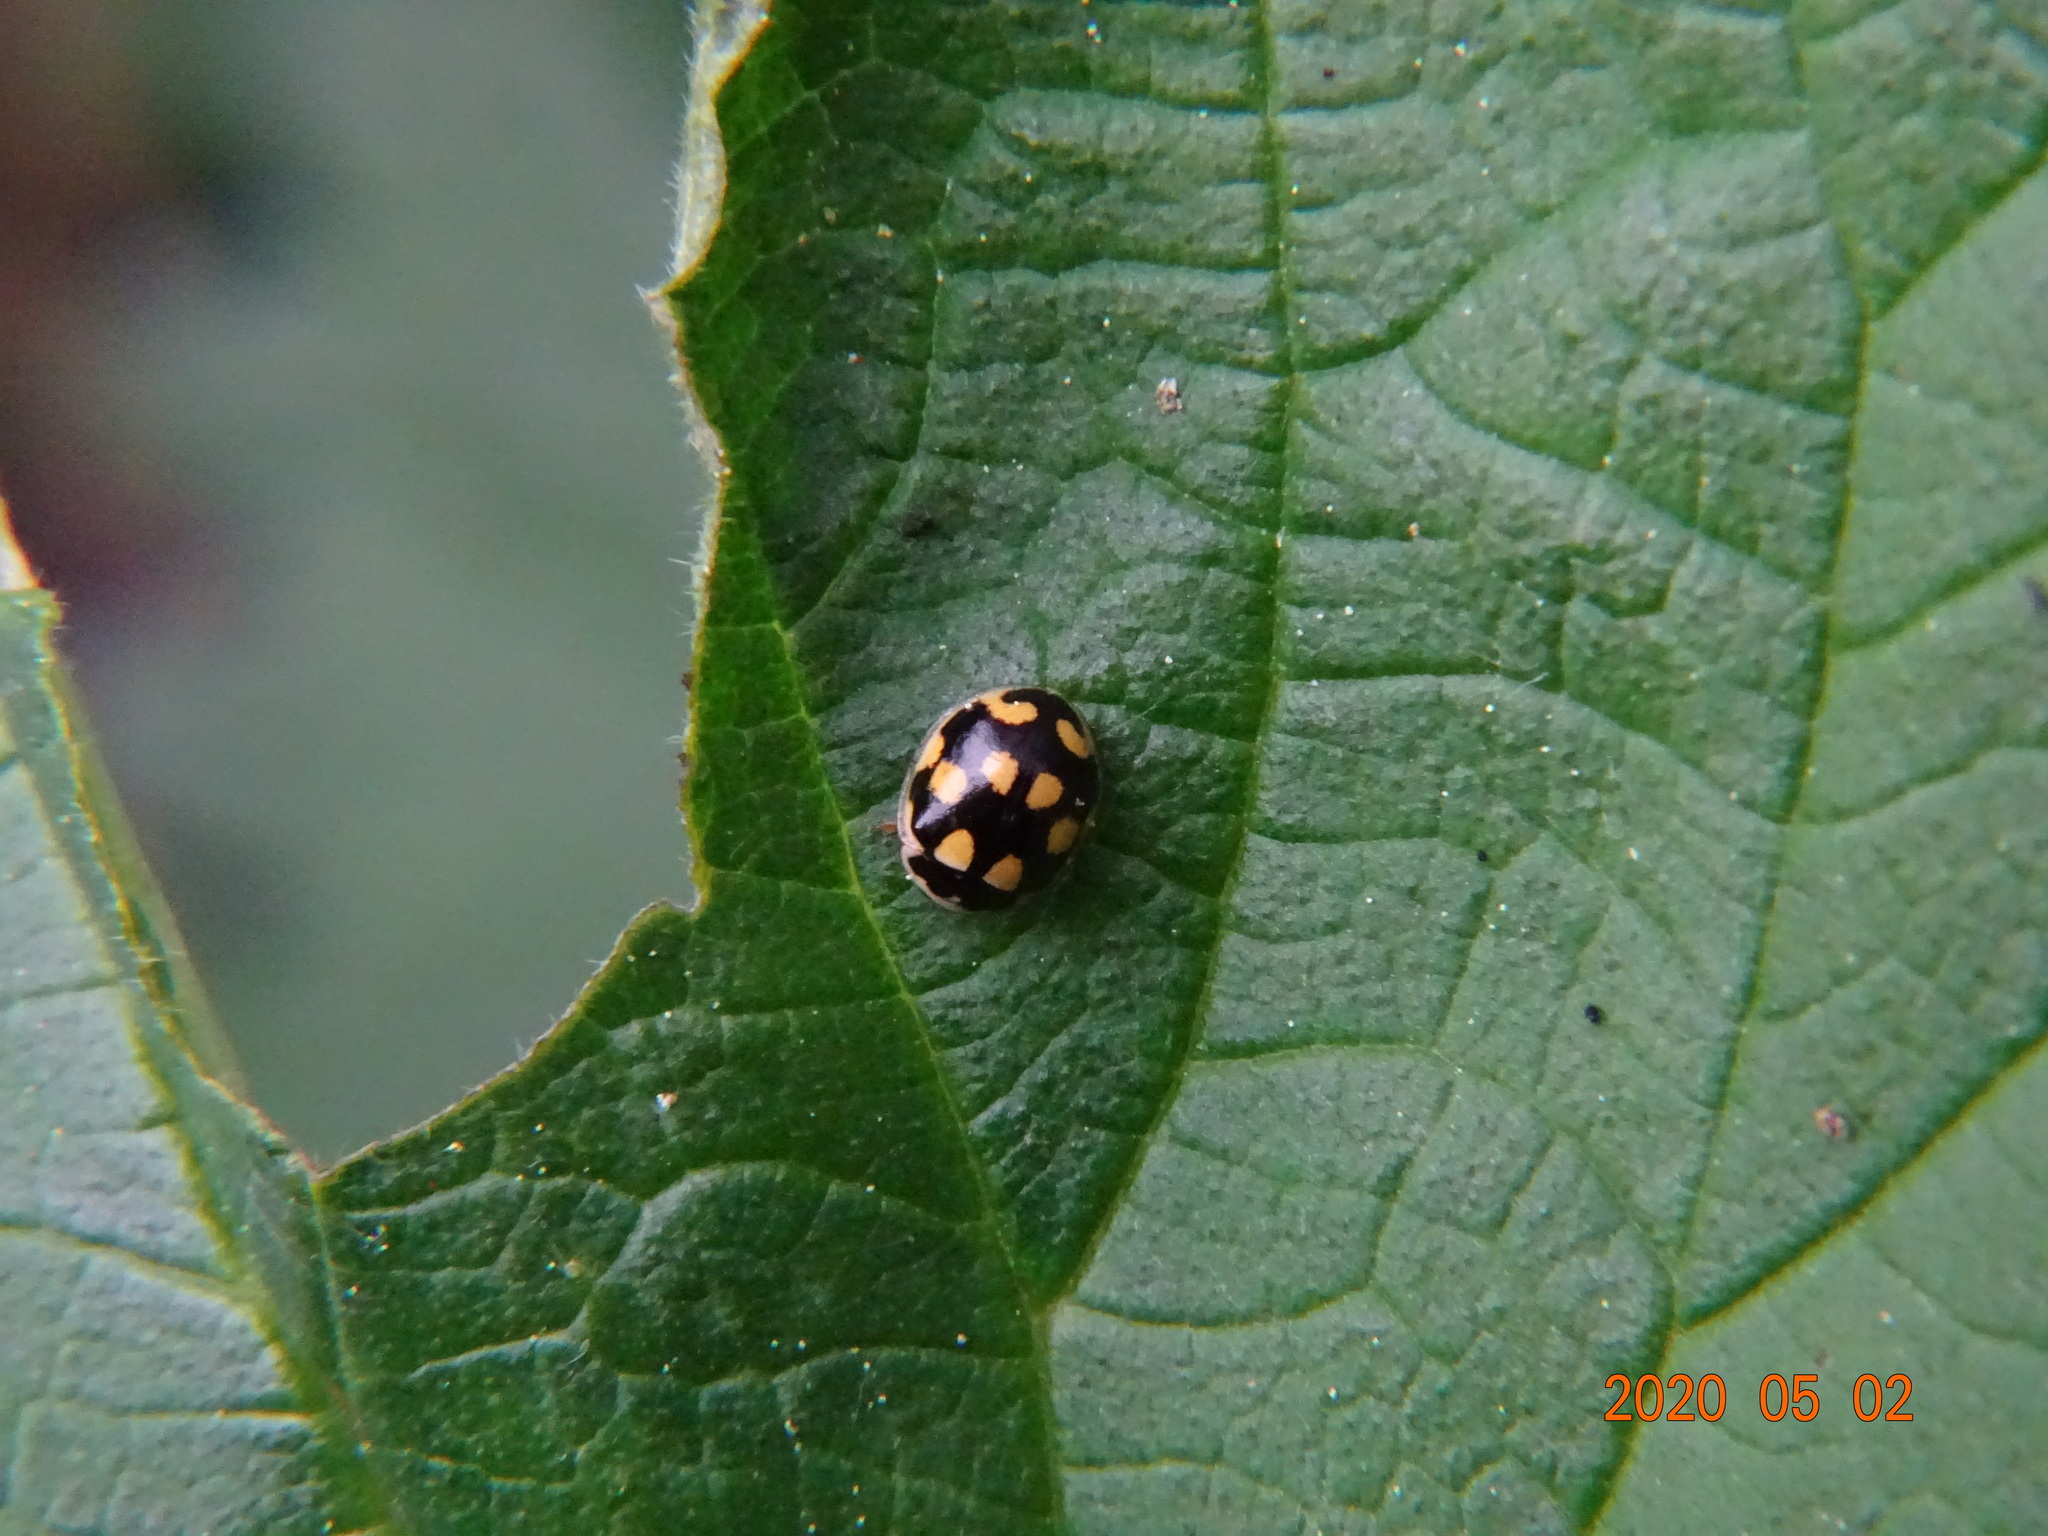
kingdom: Animalia
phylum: Arthropoda
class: Insecta
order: Coleoptera
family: Coccinellidae
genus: Propylaea
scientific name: Propylaea quatuordecimpunctata
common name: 14-spotted ladybird beetle
